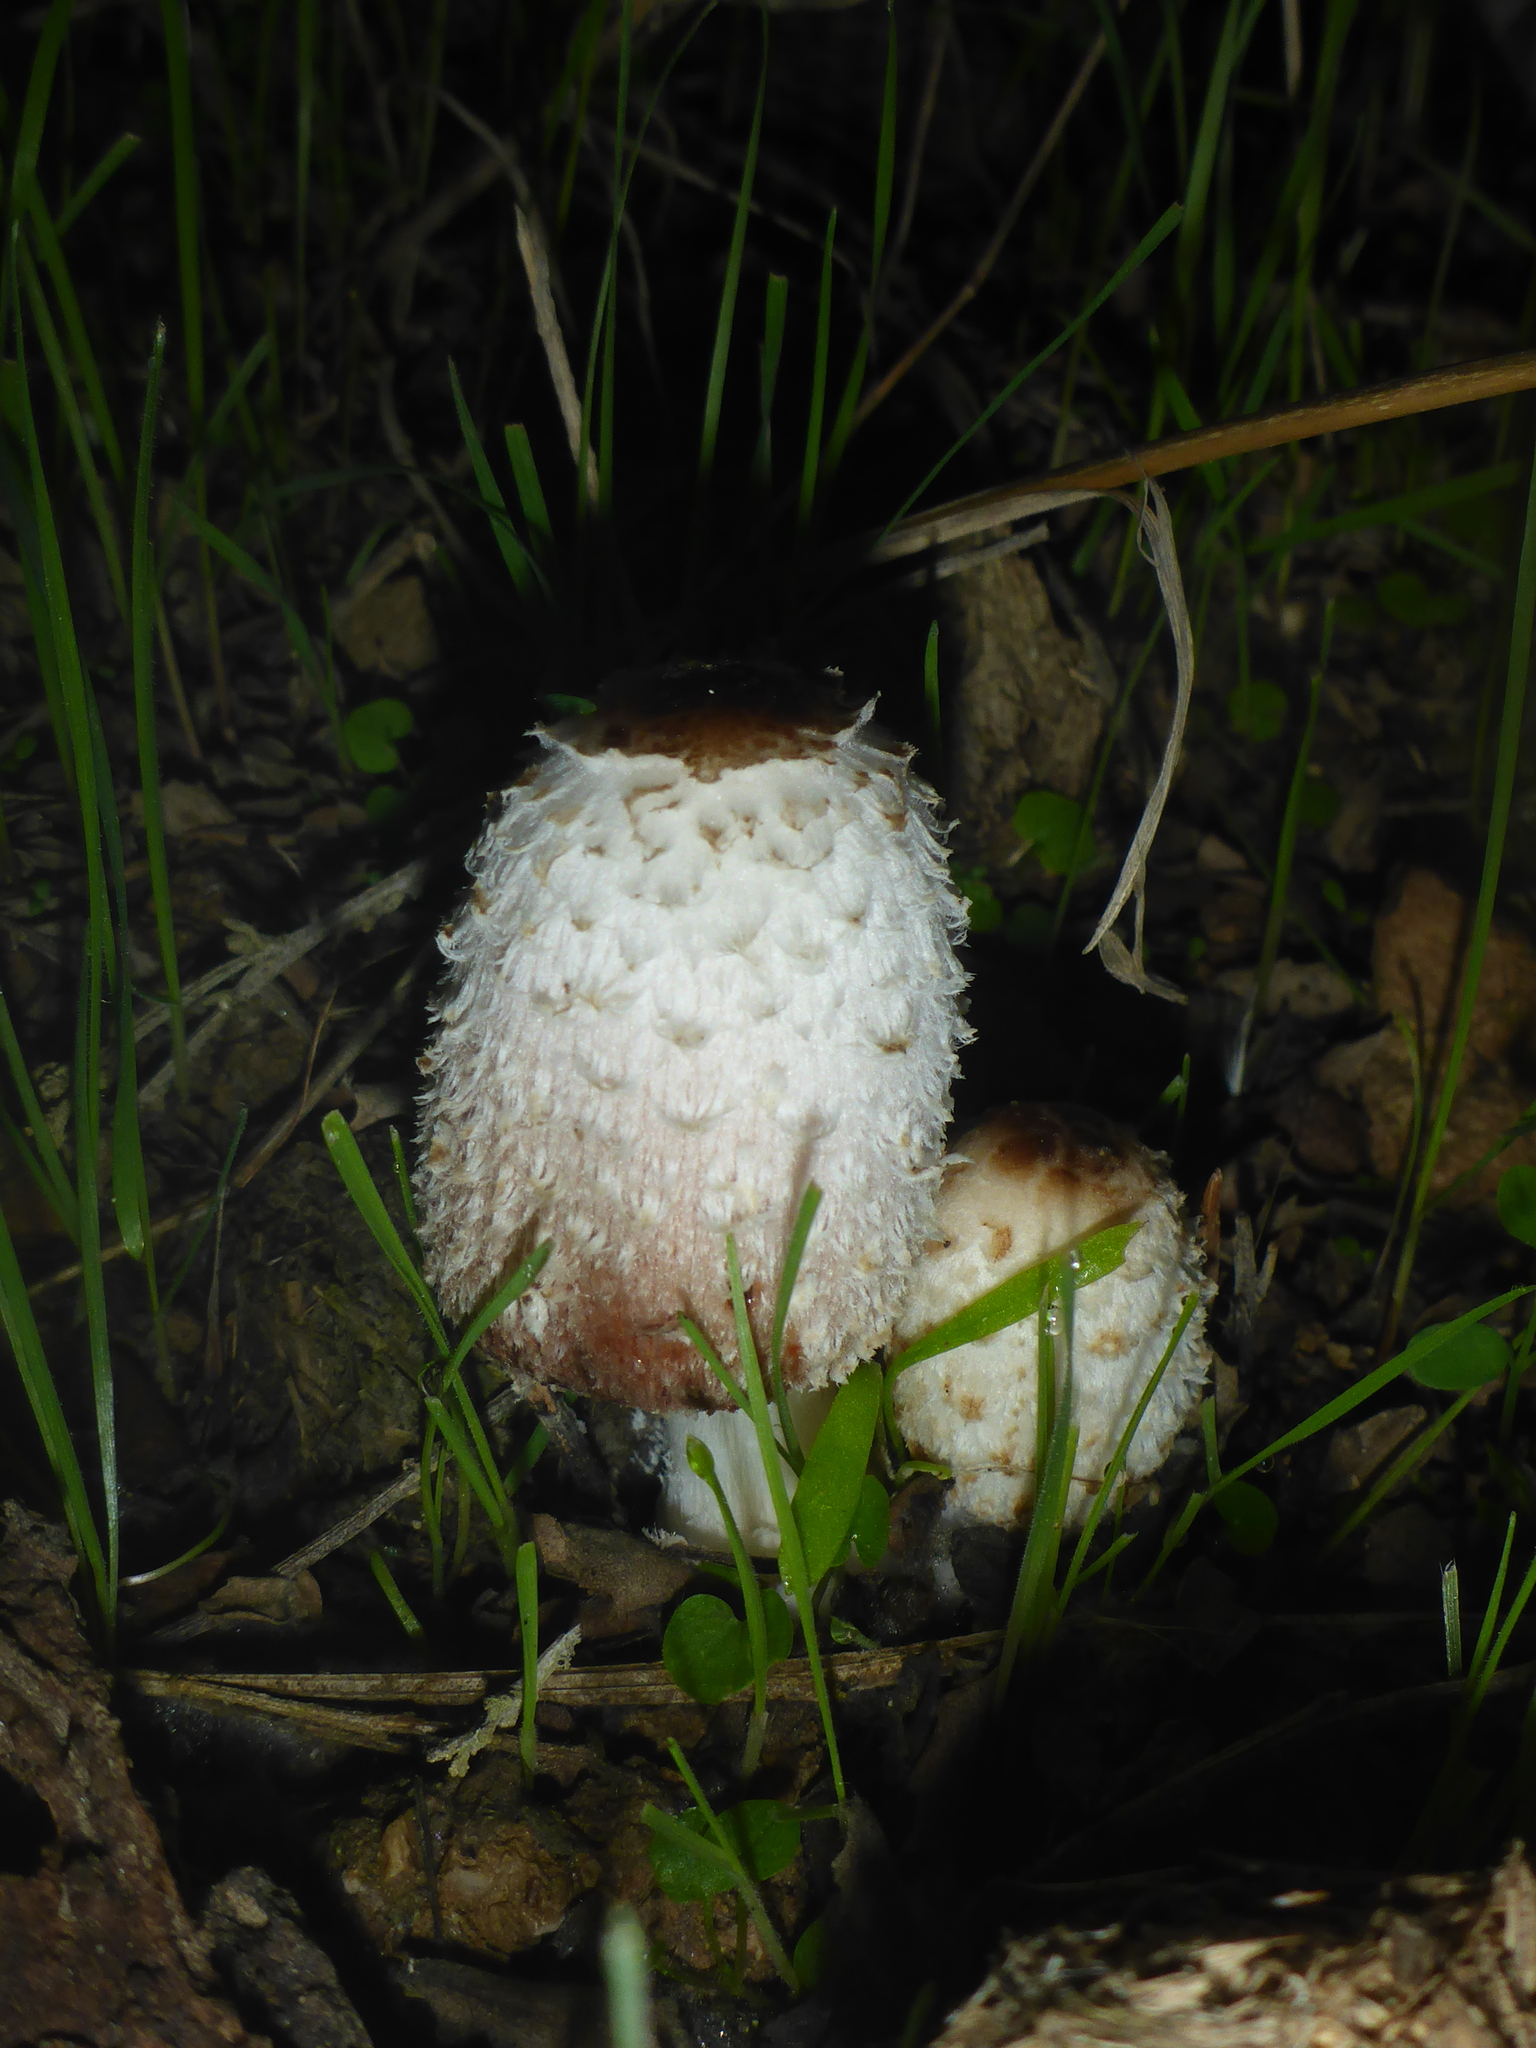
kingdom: Fungi
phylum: Basidiomycota
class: Agaricomycetes
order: Agaricales
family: Agaricaceae
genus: Coprinus
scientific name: Coprinus comatus
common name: Lawyer's wig
